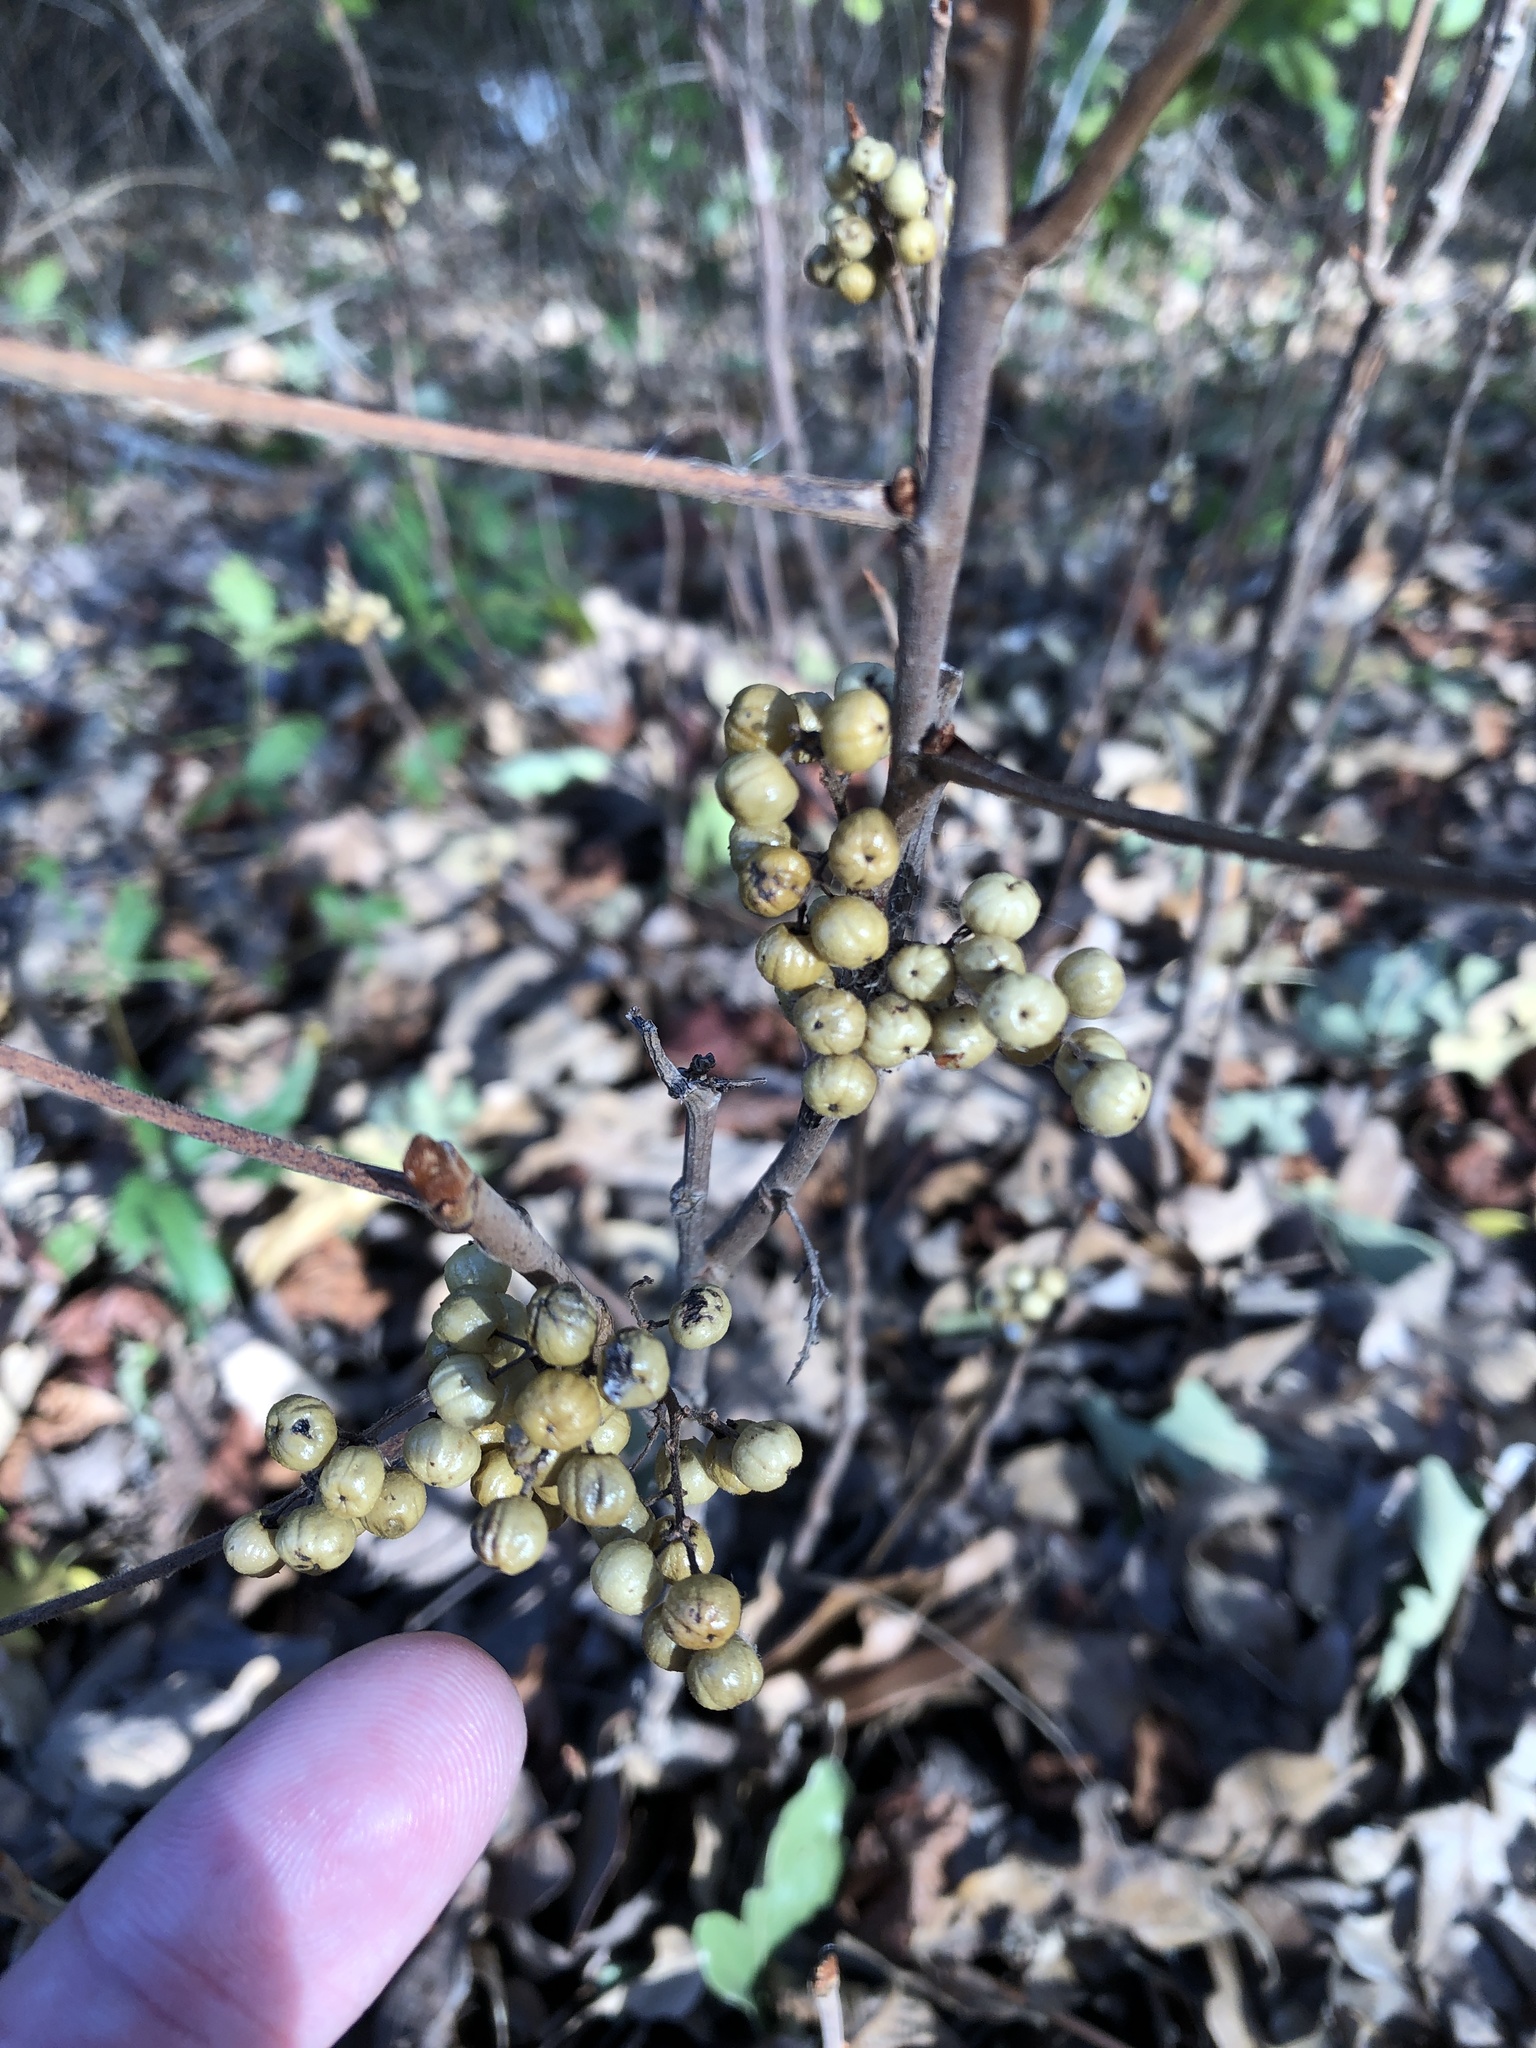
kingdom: Plantae
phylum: Tracheophyta
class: Magnoliopsida
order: Sapindales
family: Anacardiaceae
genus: Toxicodendron
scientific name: Toxicodendron radicans
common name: Poison ivy
